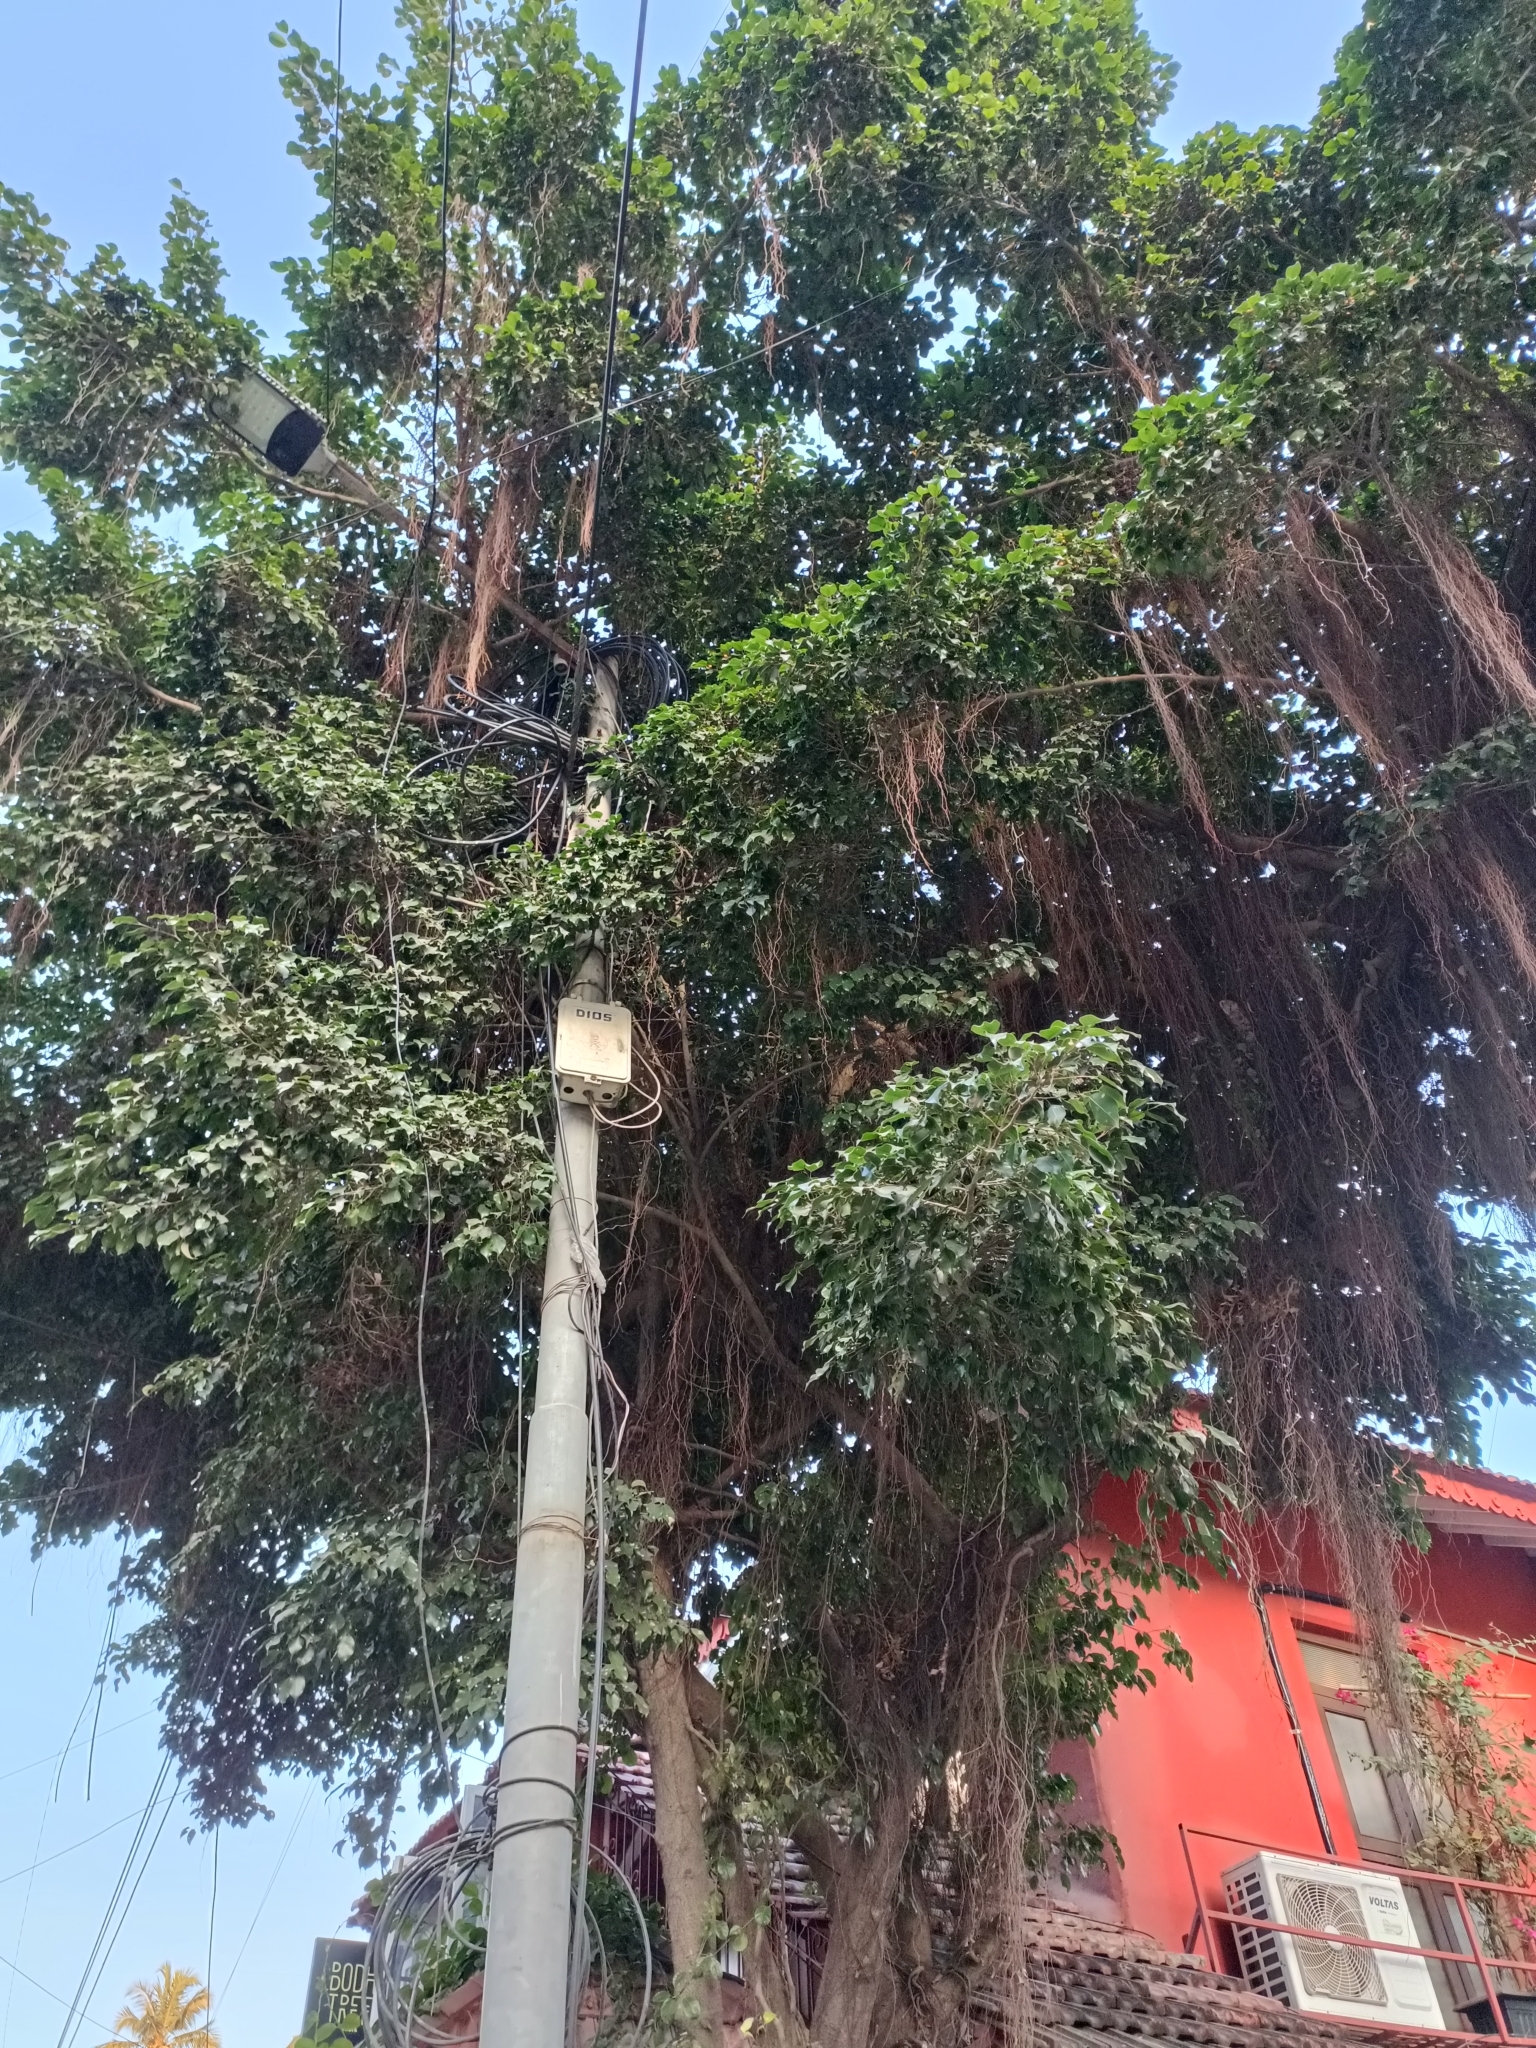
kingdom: Plantae
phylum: Tracheophyta
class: Magnoliopsida
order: Rosales
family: Moraceae
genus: Ficus
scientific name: Ficus benghalensis
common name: Indian banyan
